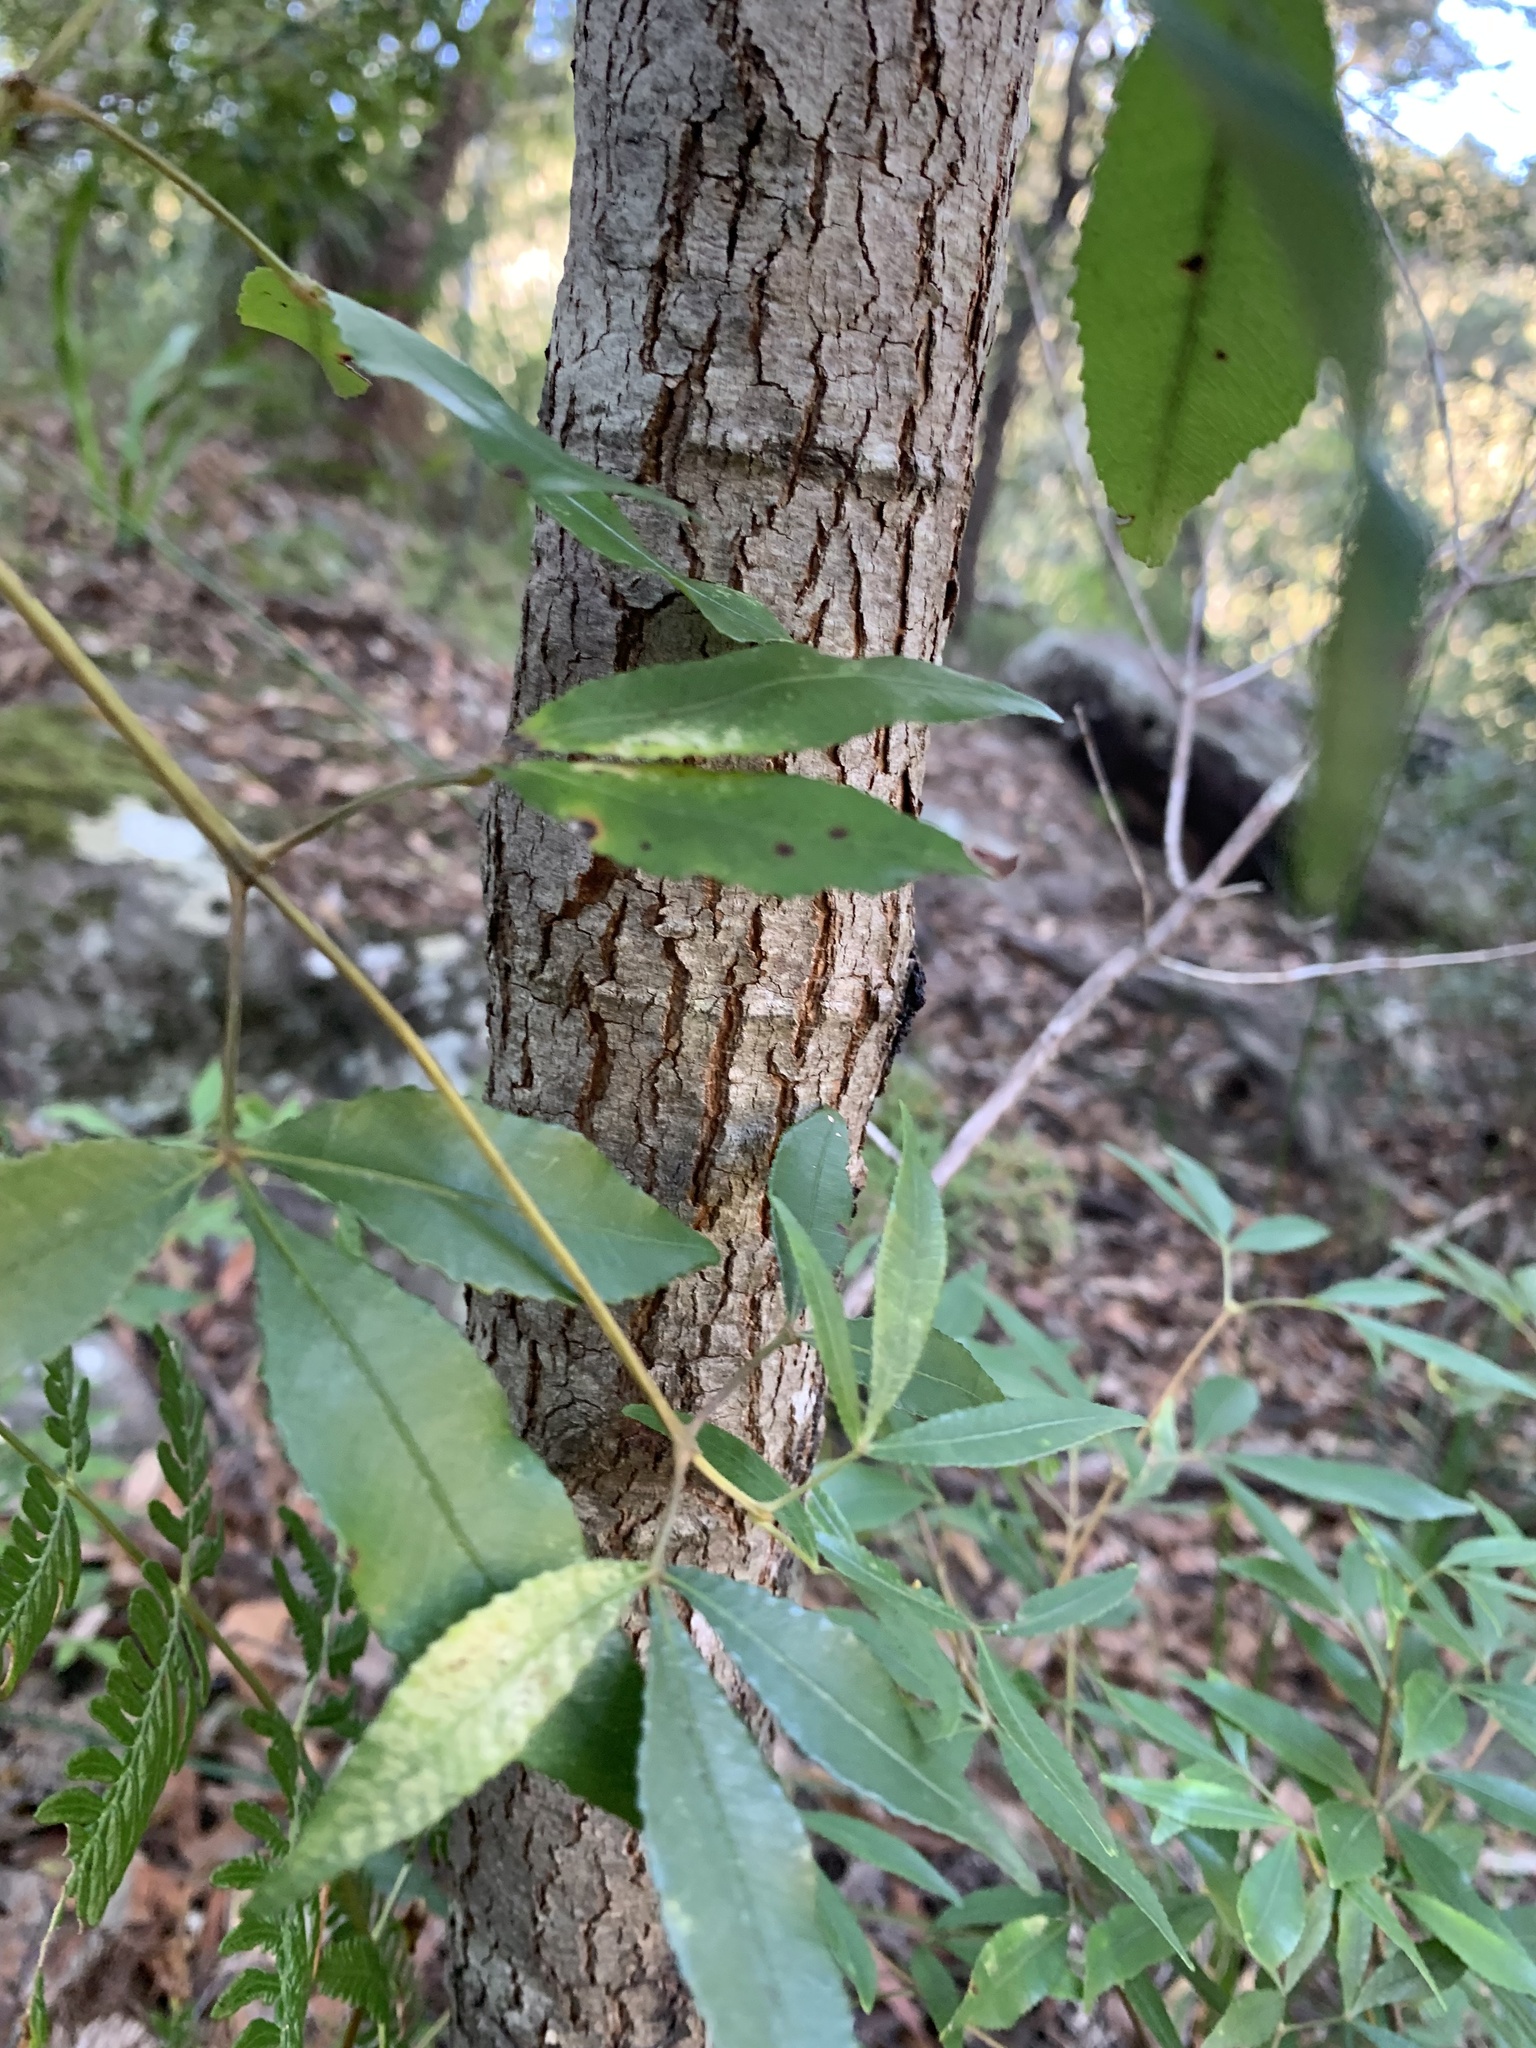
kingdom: Plantae
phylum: Tracheophyta
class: Magnoliopsida
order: Oxalidales
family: Cunoniaceae
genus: Ceratopetalum
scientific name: Ceratopetalum gummiferum
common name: Christmasbush
